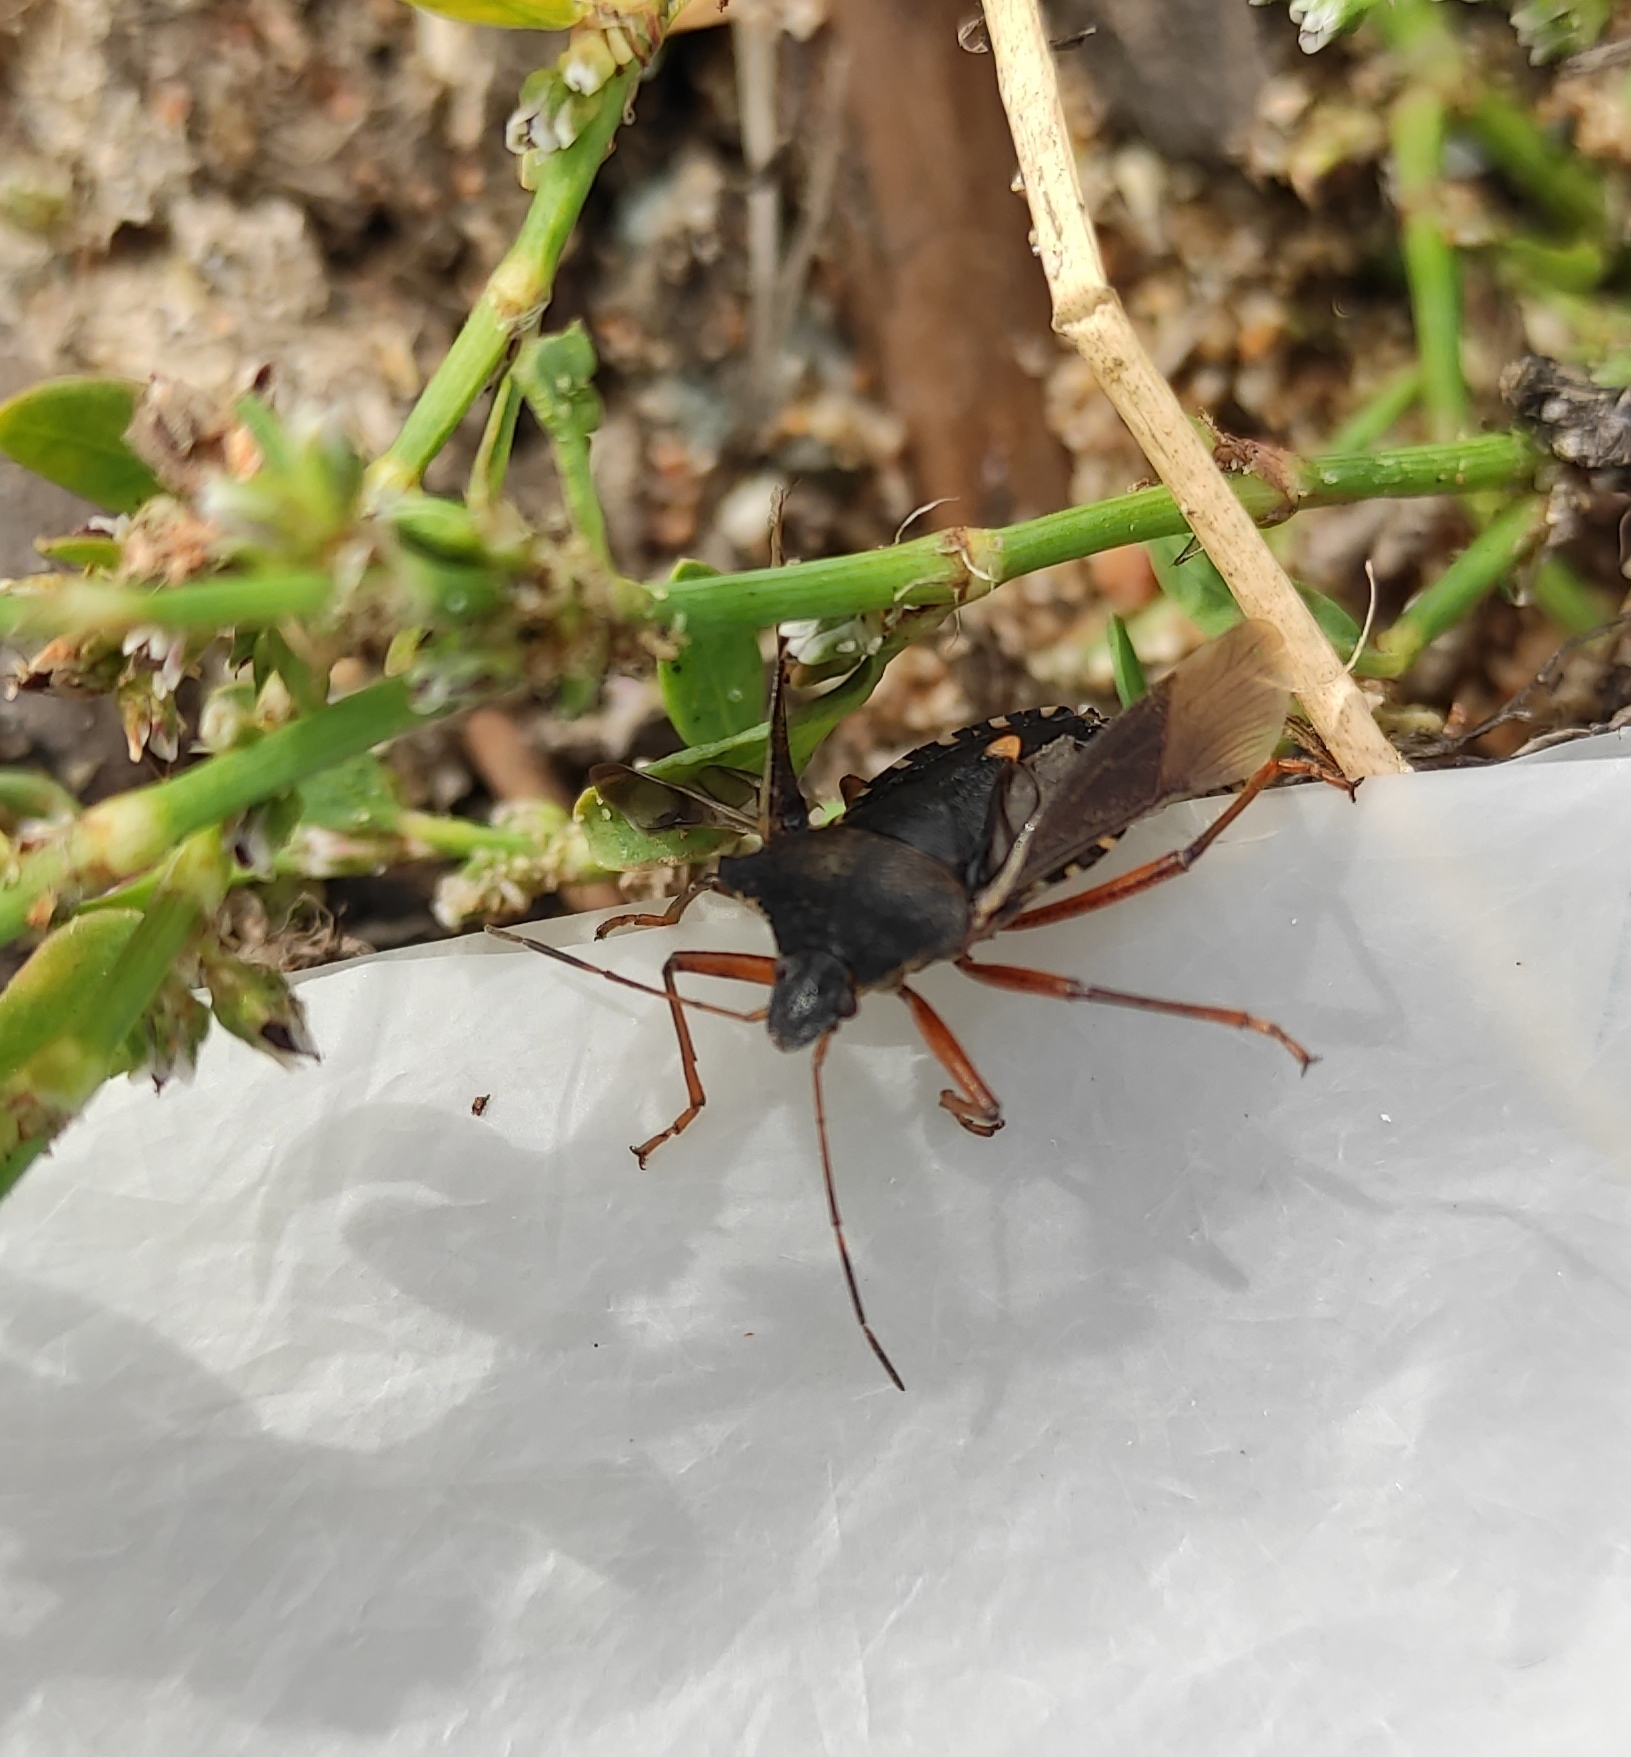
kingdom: Animalia
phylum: Arthropoda
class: Insecta
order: Hemiptera
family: Pentatomidae
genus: Pentatoma
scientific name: Pentatoma rufipes
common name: Forest bug
